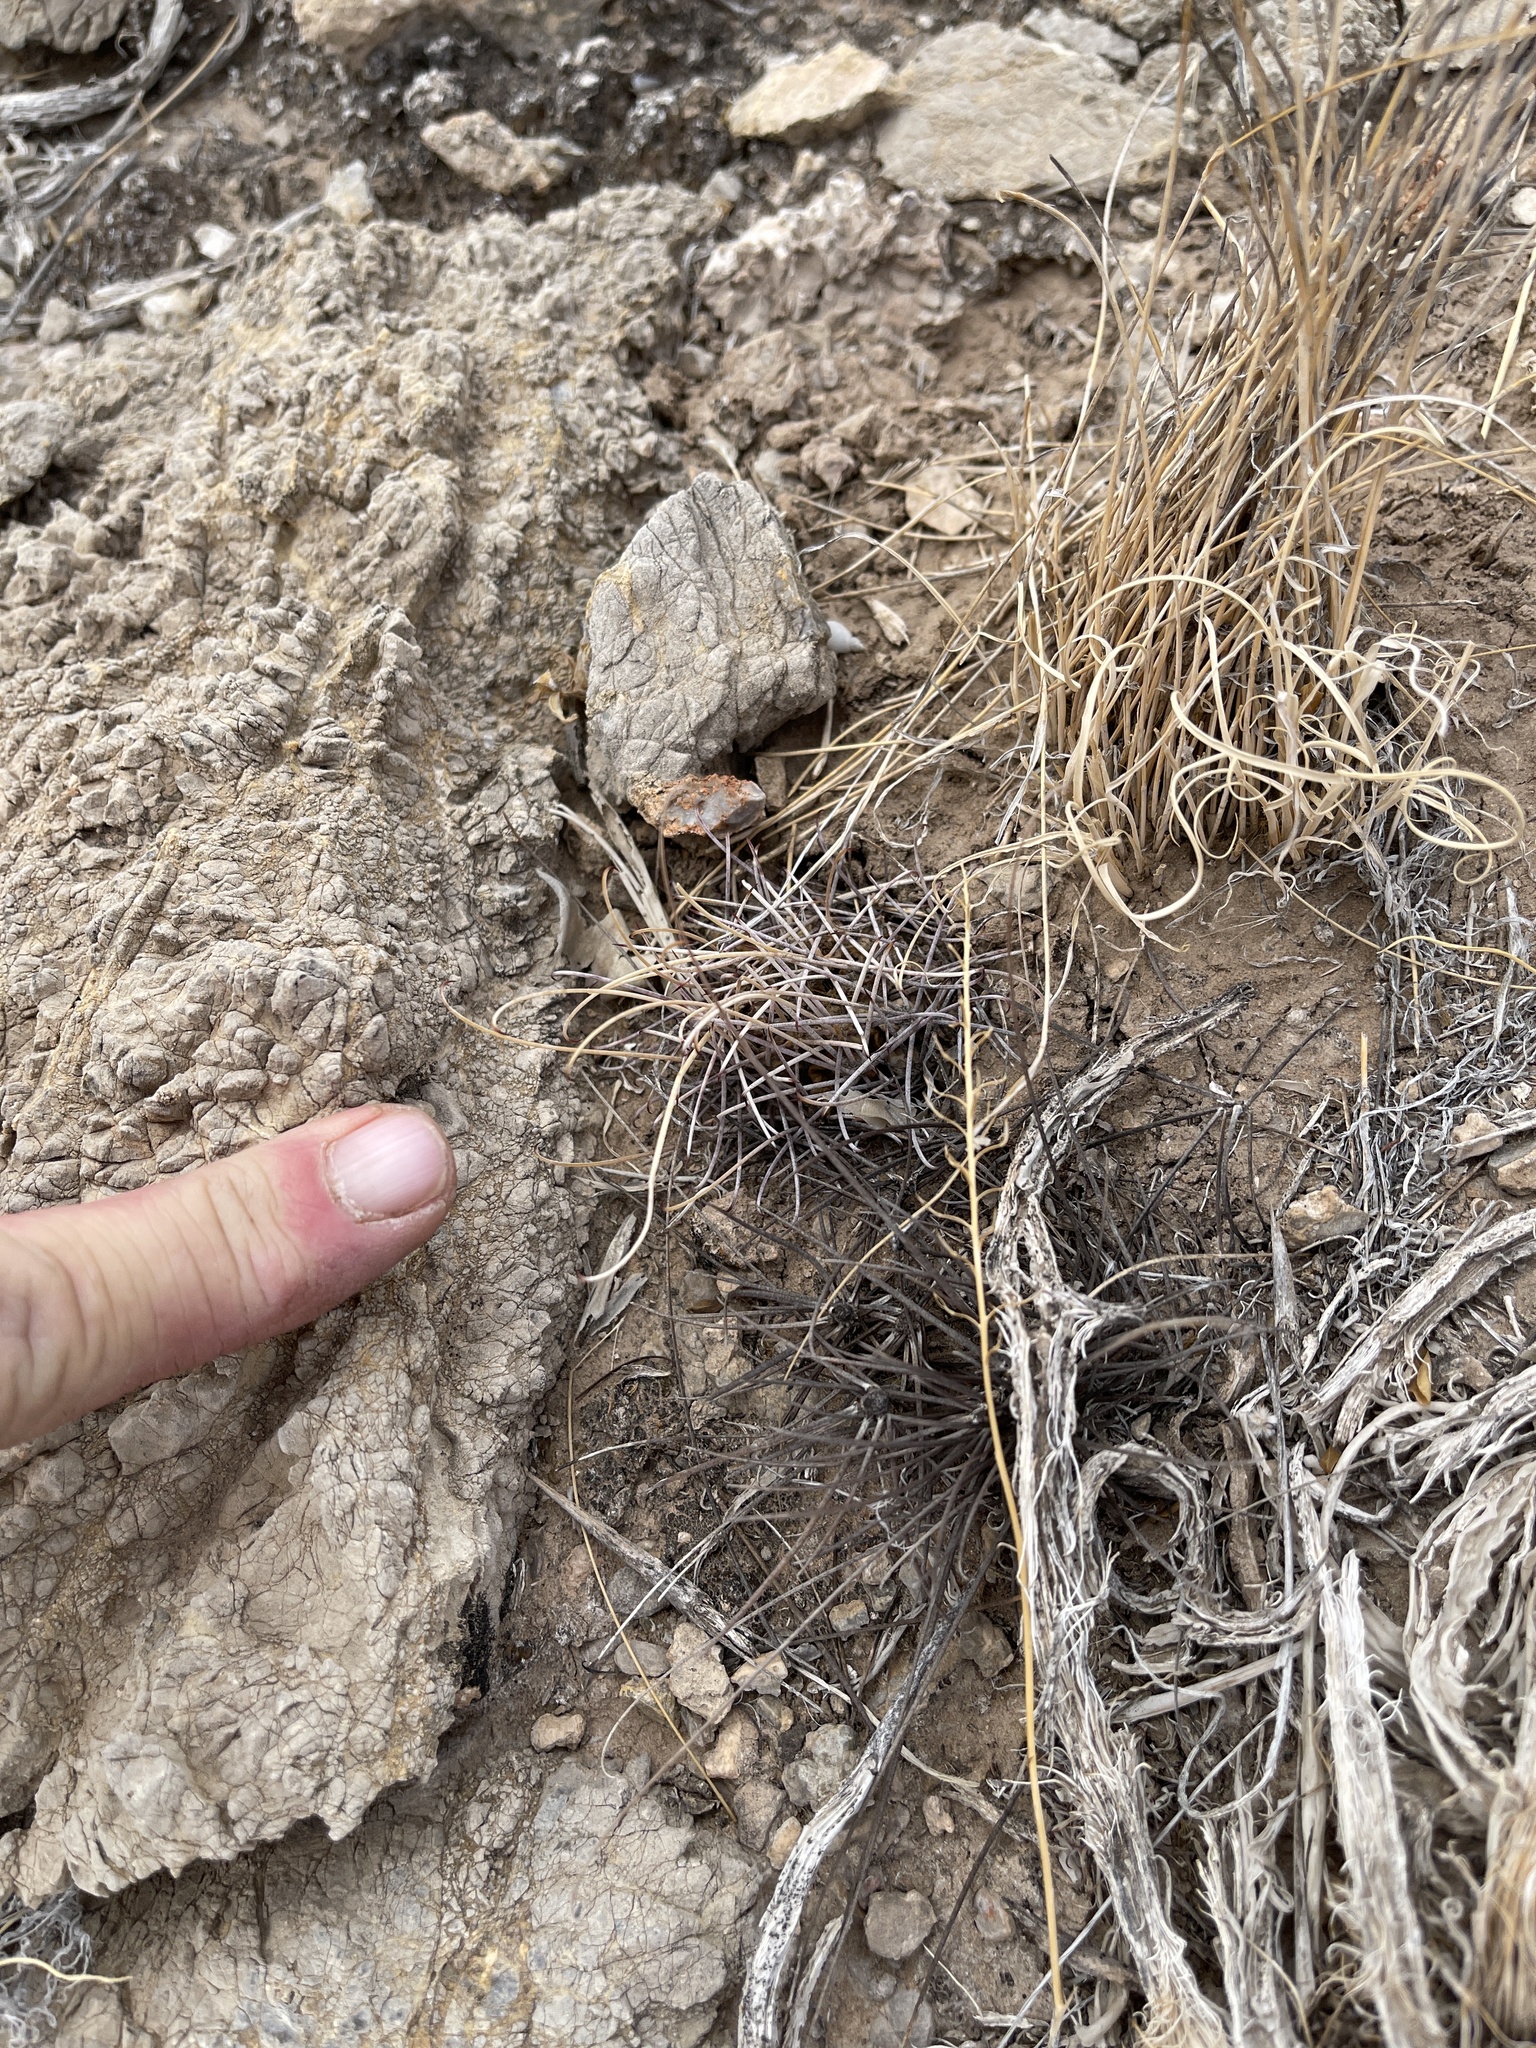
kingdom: Plantae
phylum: Tracheophyta
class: Magnoliopsida
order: Caryophyllales
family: Cactaceae
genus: Ferocactus
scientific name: Ferocactus uncinatus
